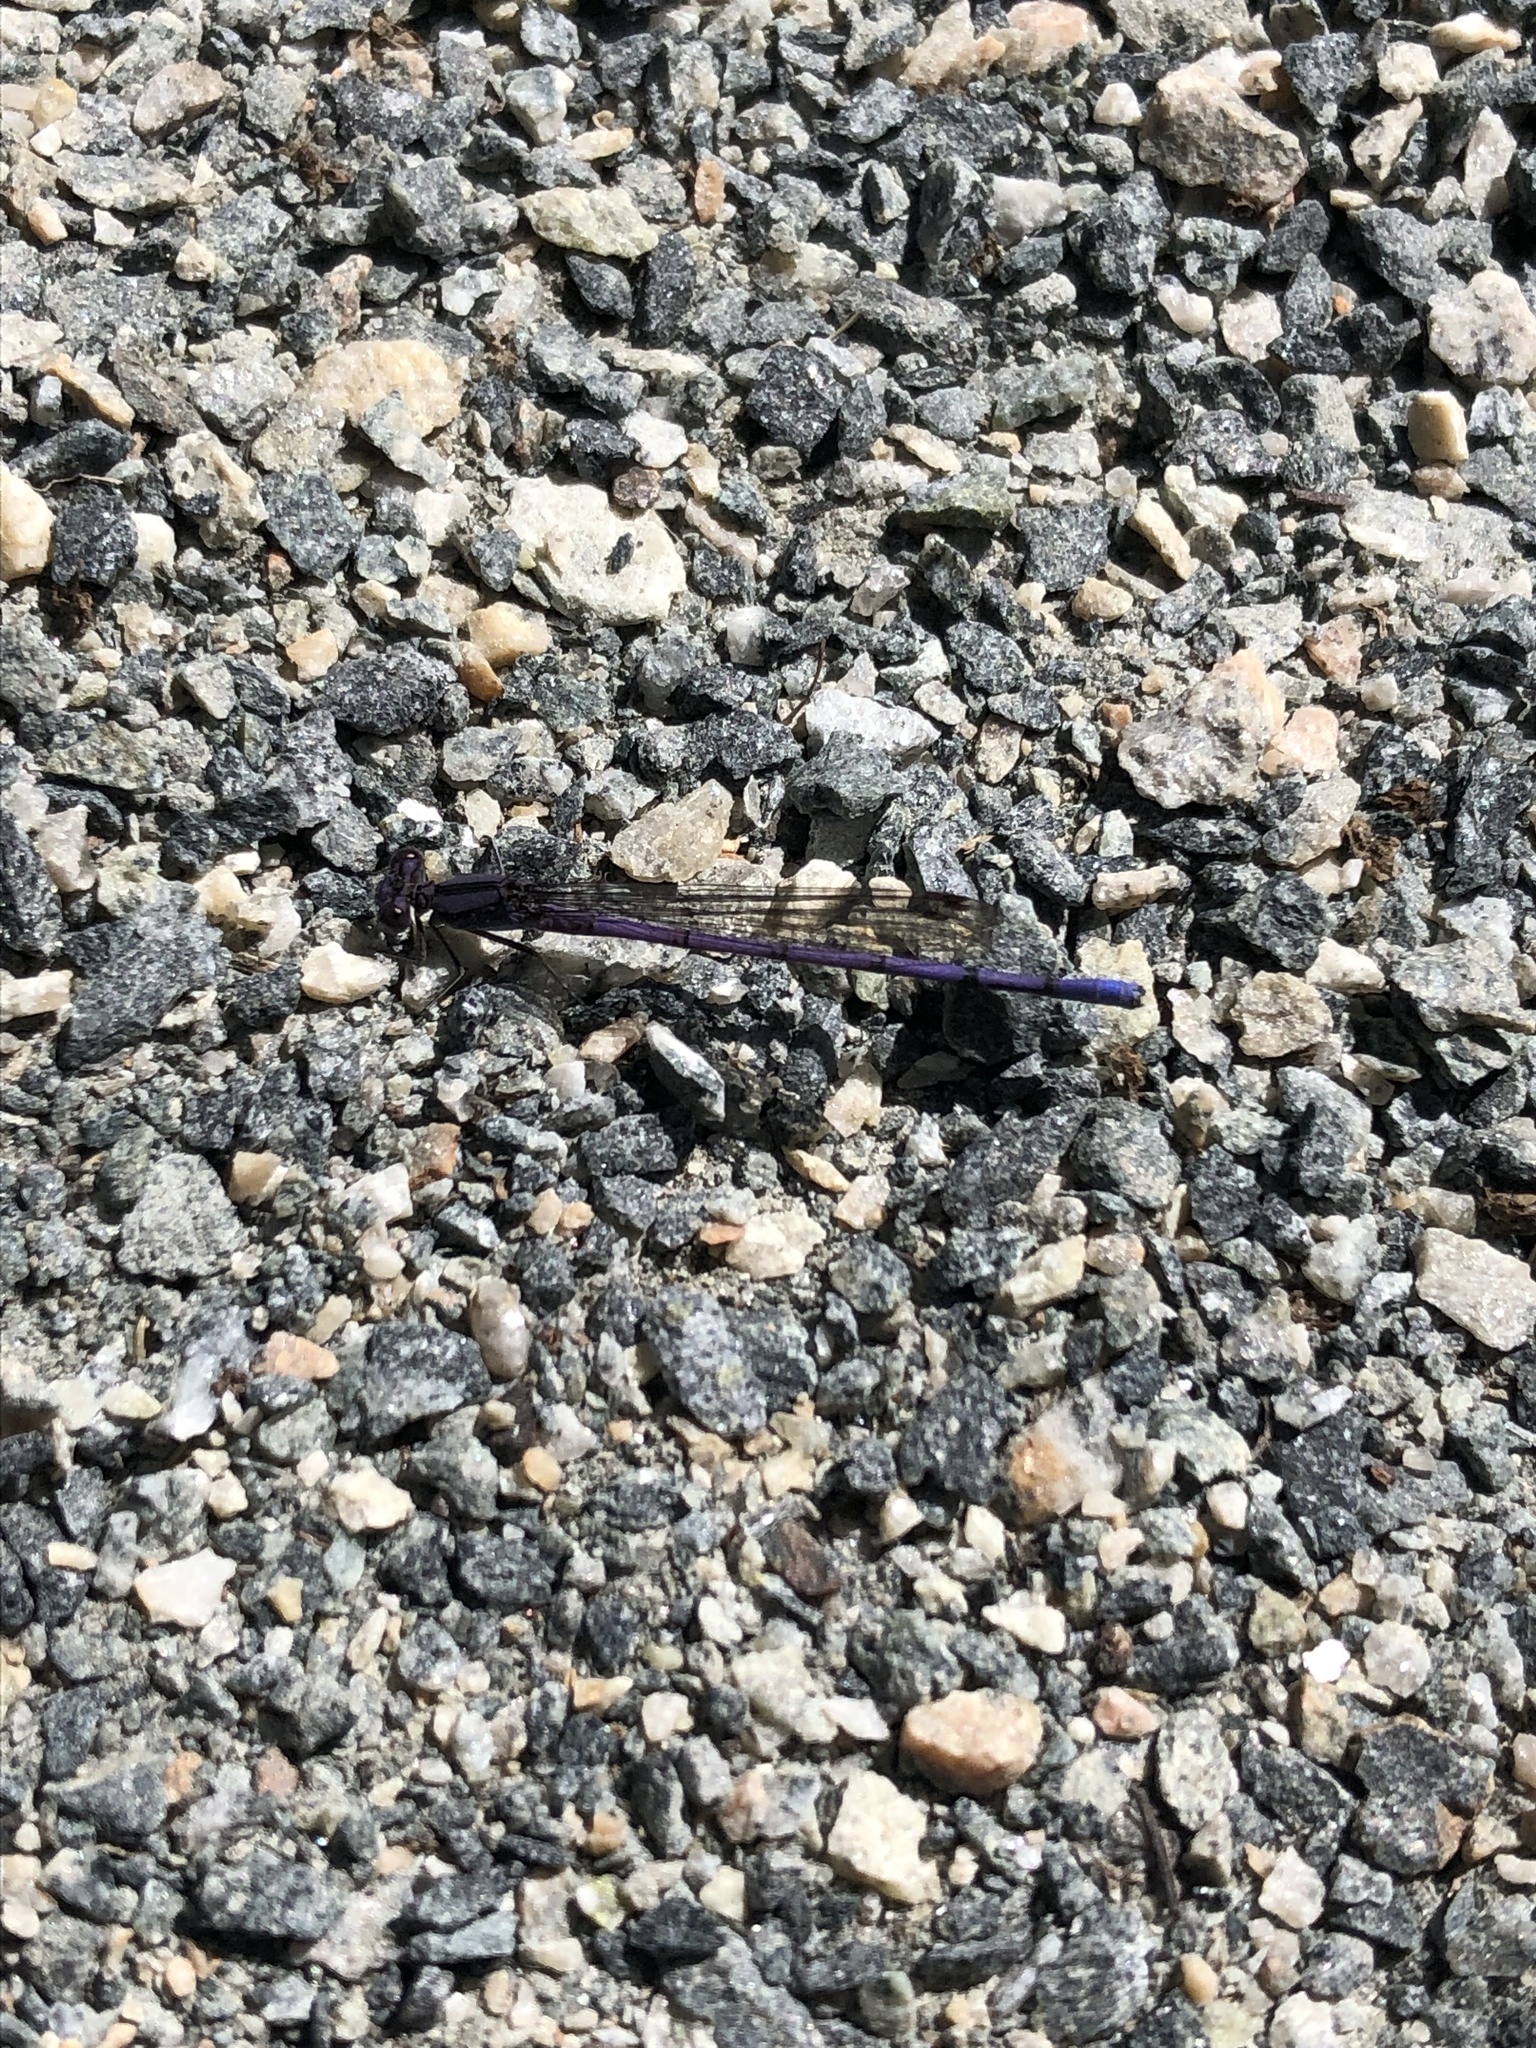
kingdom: Animalia
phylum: Arthropoda
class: Insecta
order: Odonata
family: Coenagrionidae
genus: Argia
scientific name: Argia fumipennis
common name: Variable dancer
